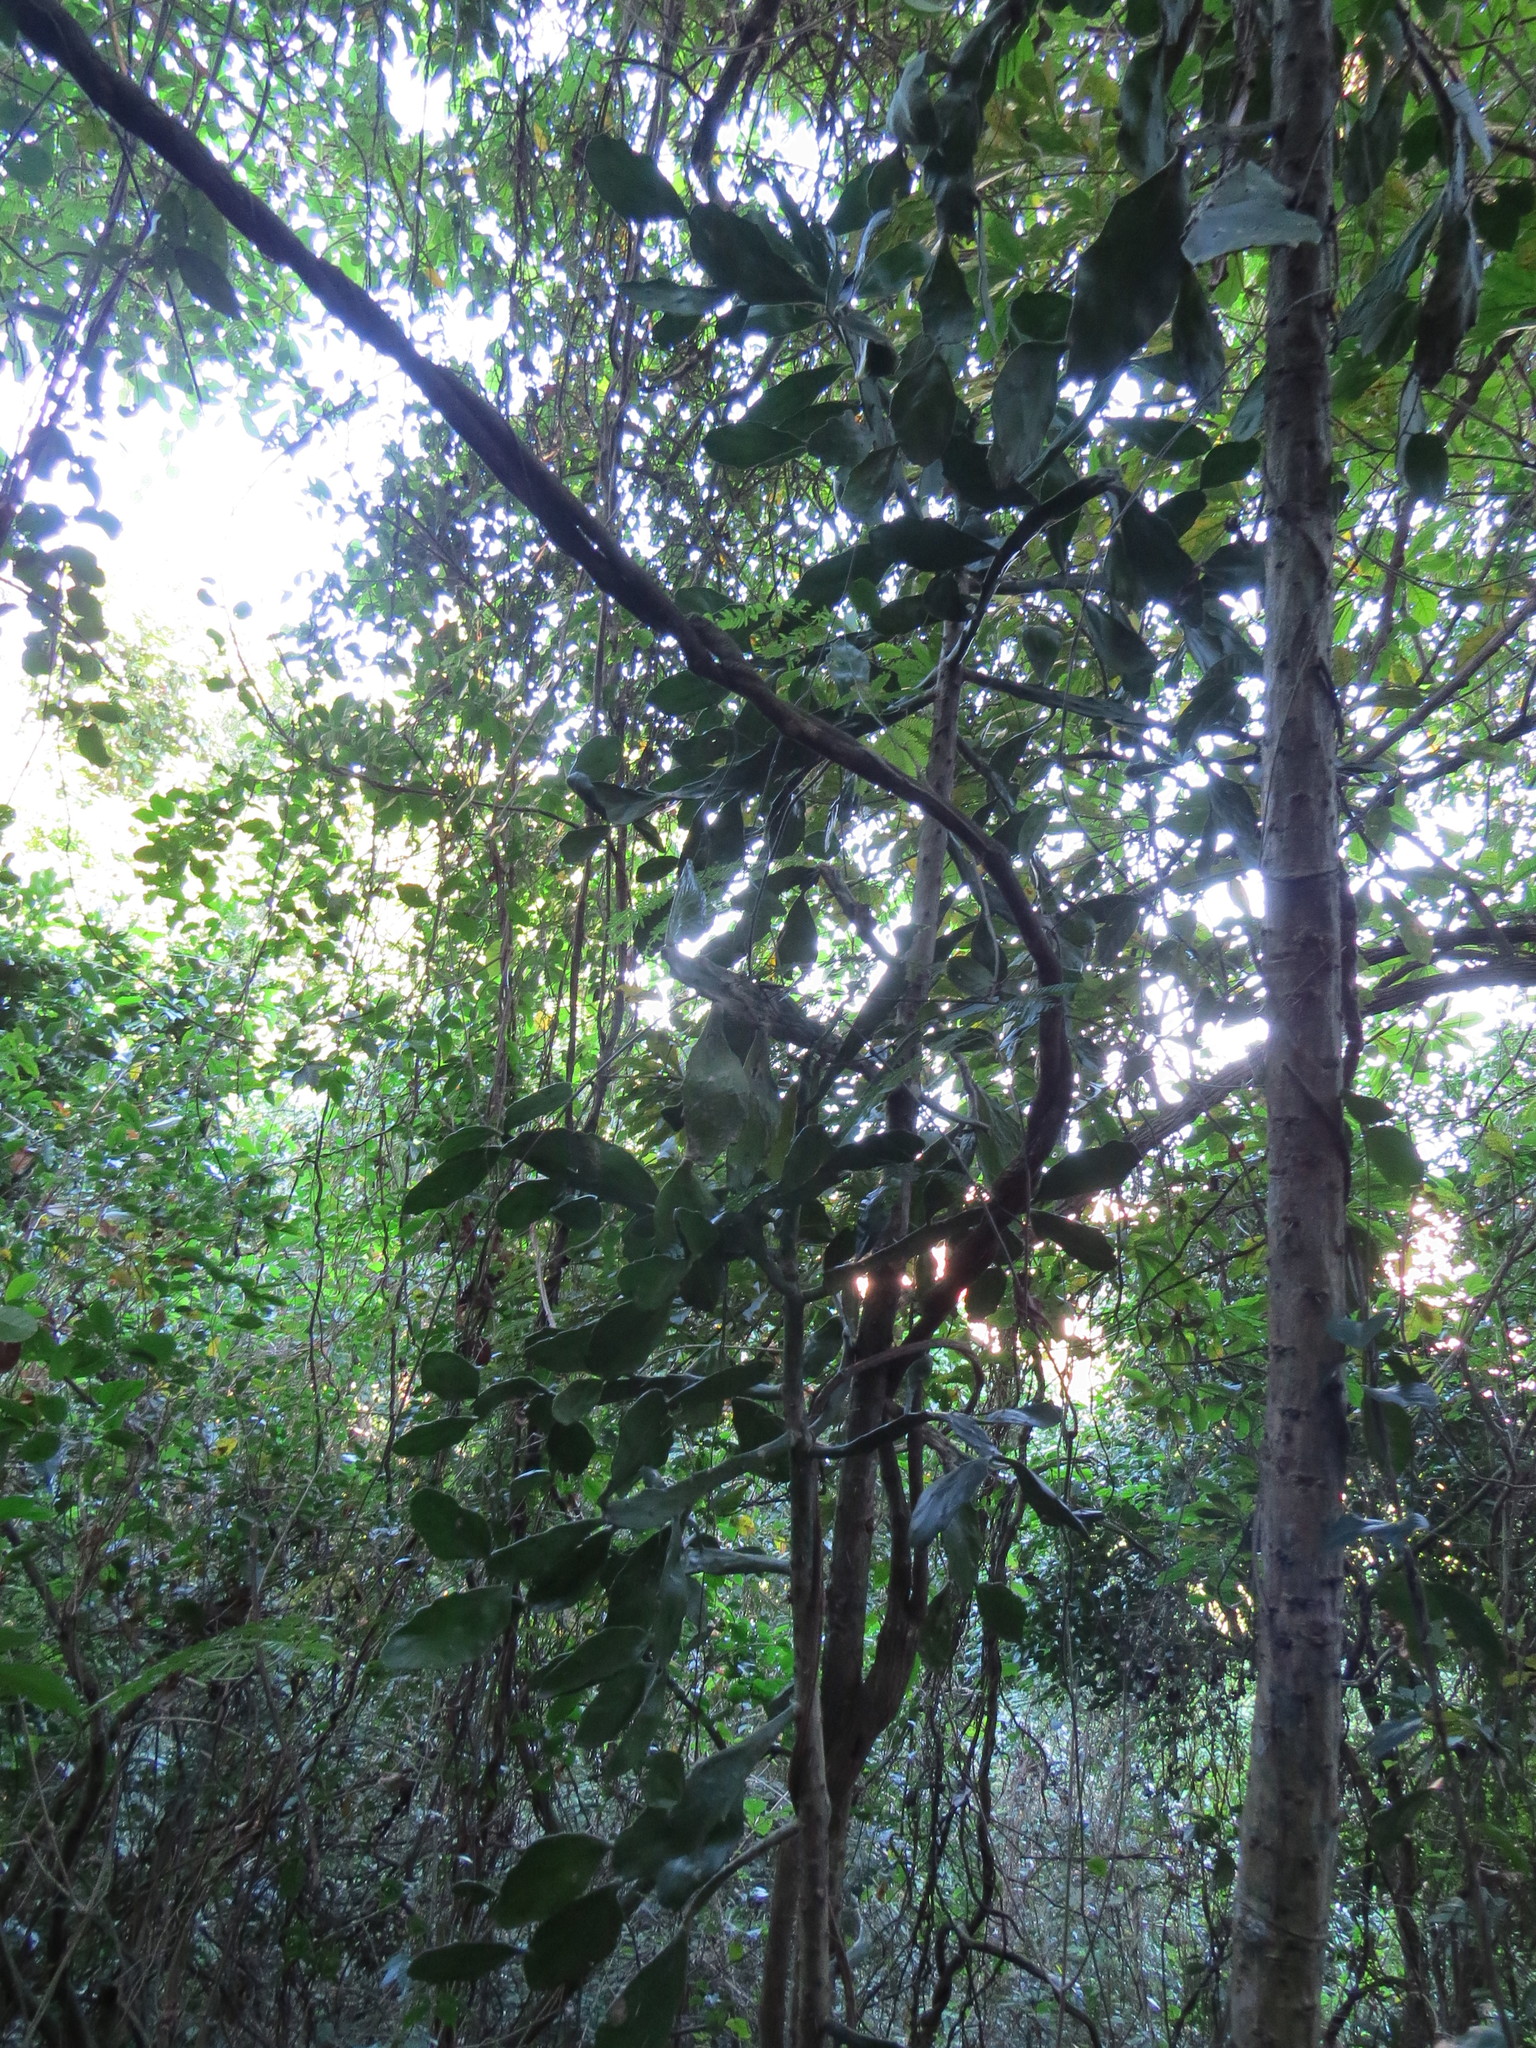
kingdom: Plantae
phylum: Tracheophyta
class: Magnoliopsida
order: Caryophyllales
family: Cactaceae
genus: Brasiliopuntia
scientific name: Brasiliopuntia brasiliensis
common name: Brazilian pricklypear
